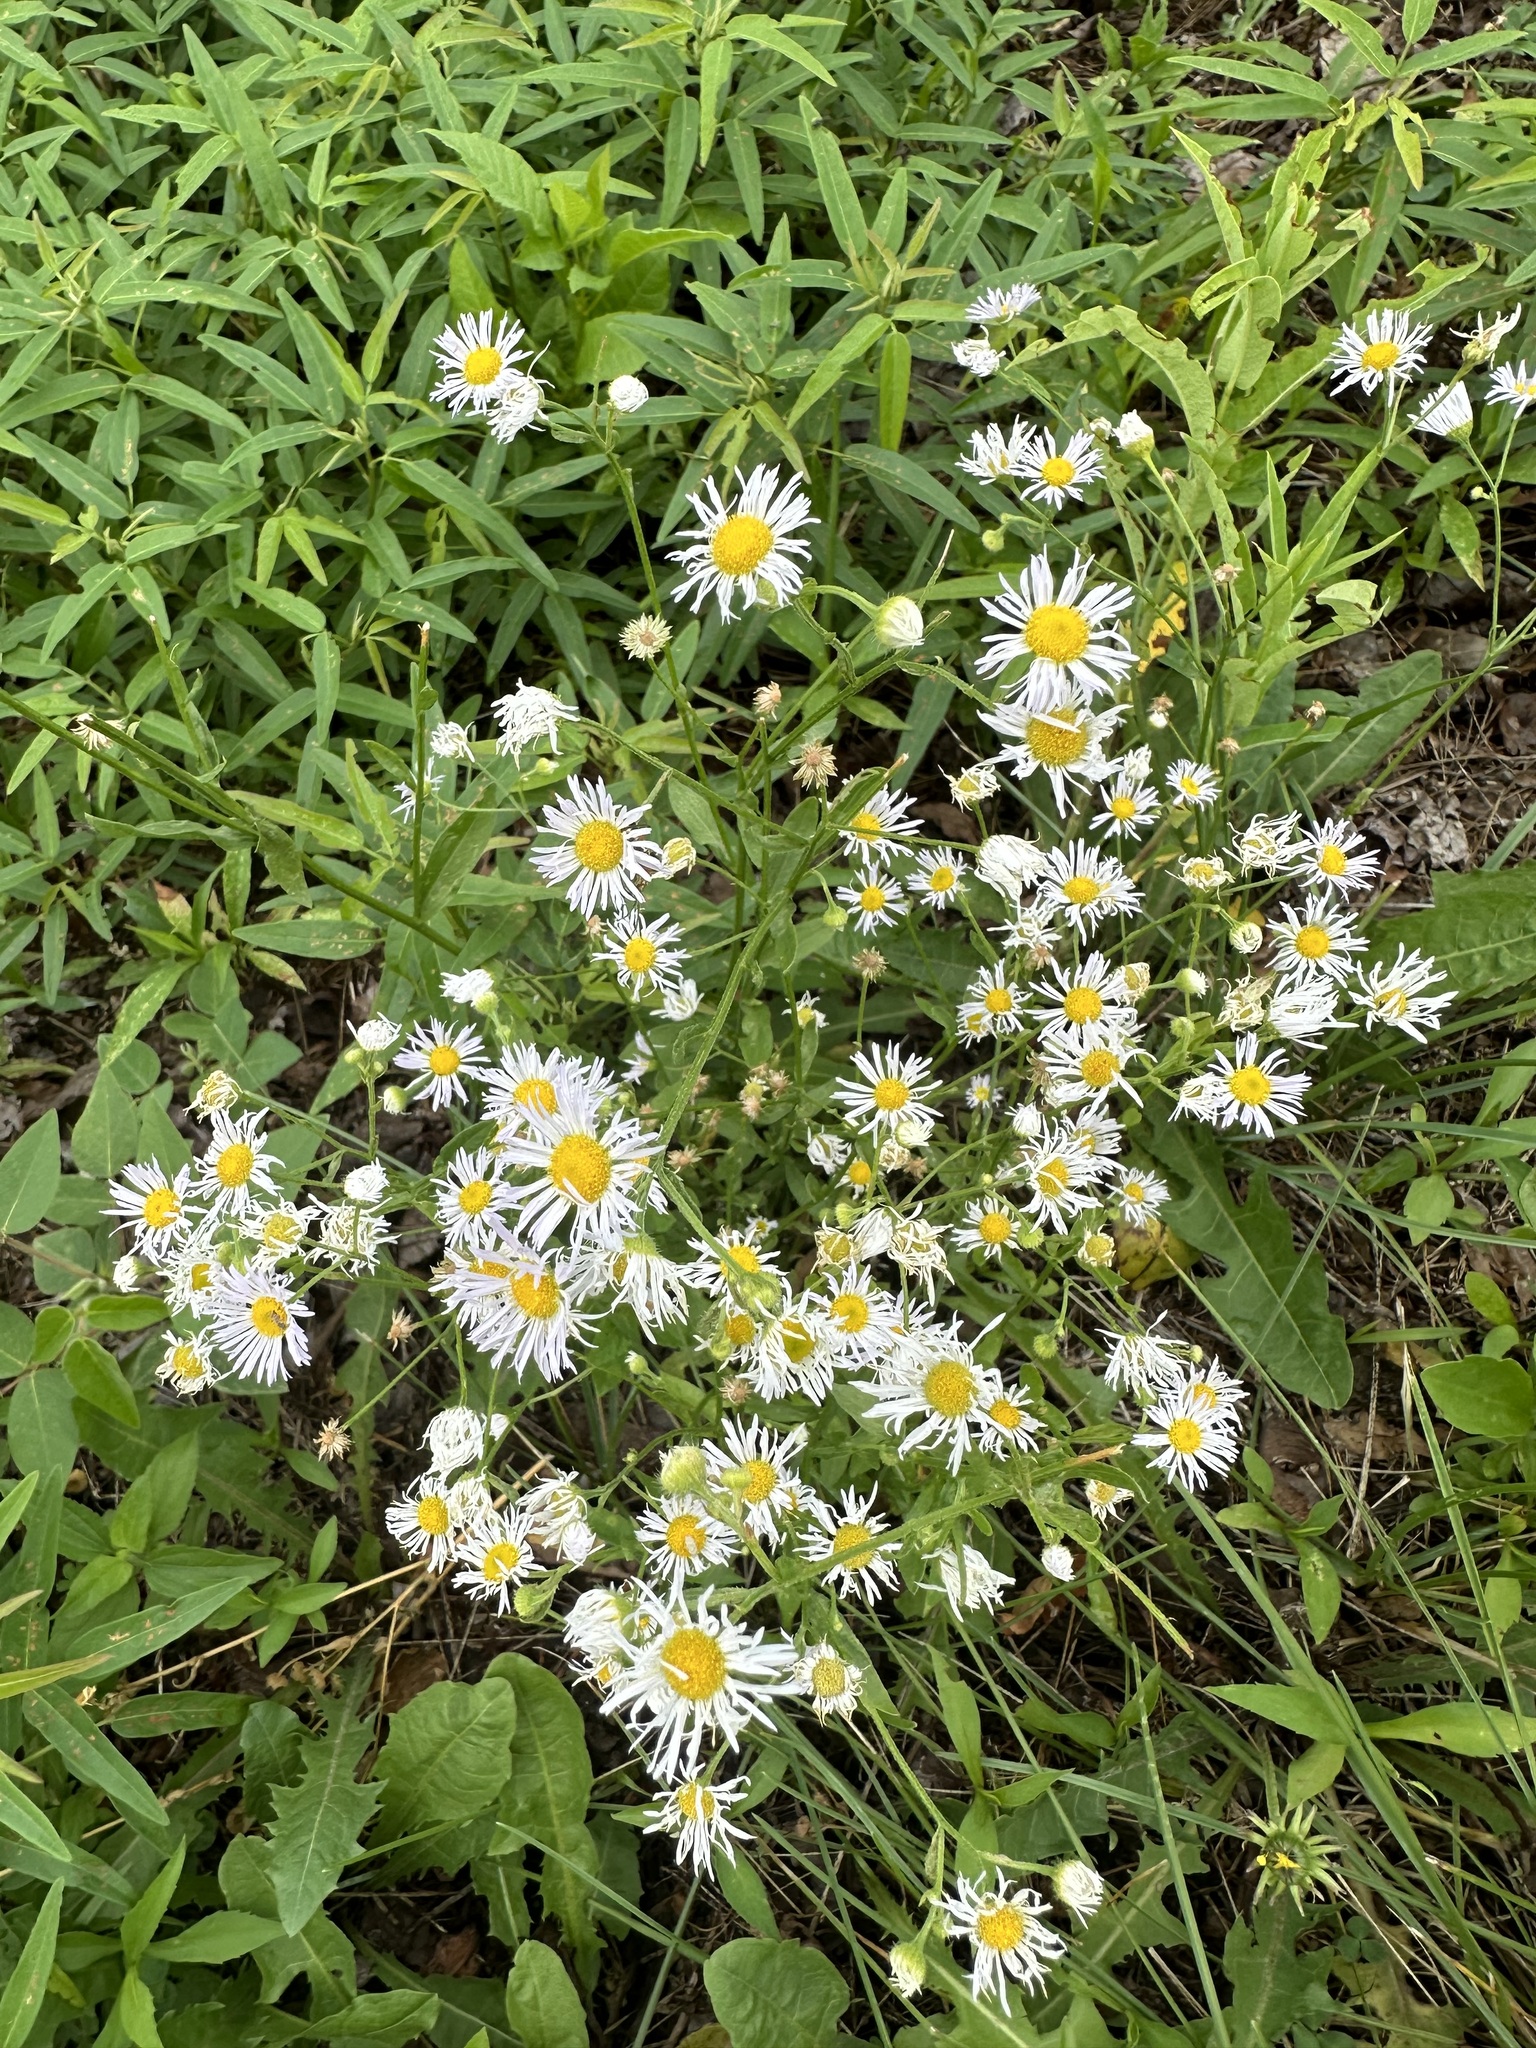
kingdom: Plantae
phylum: Tracheophyta
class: Magnoliopsida
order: Asterales
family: Asteraceae
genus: Erigeron
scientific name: Erigeron strigosus
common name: Common eastern fleabane
